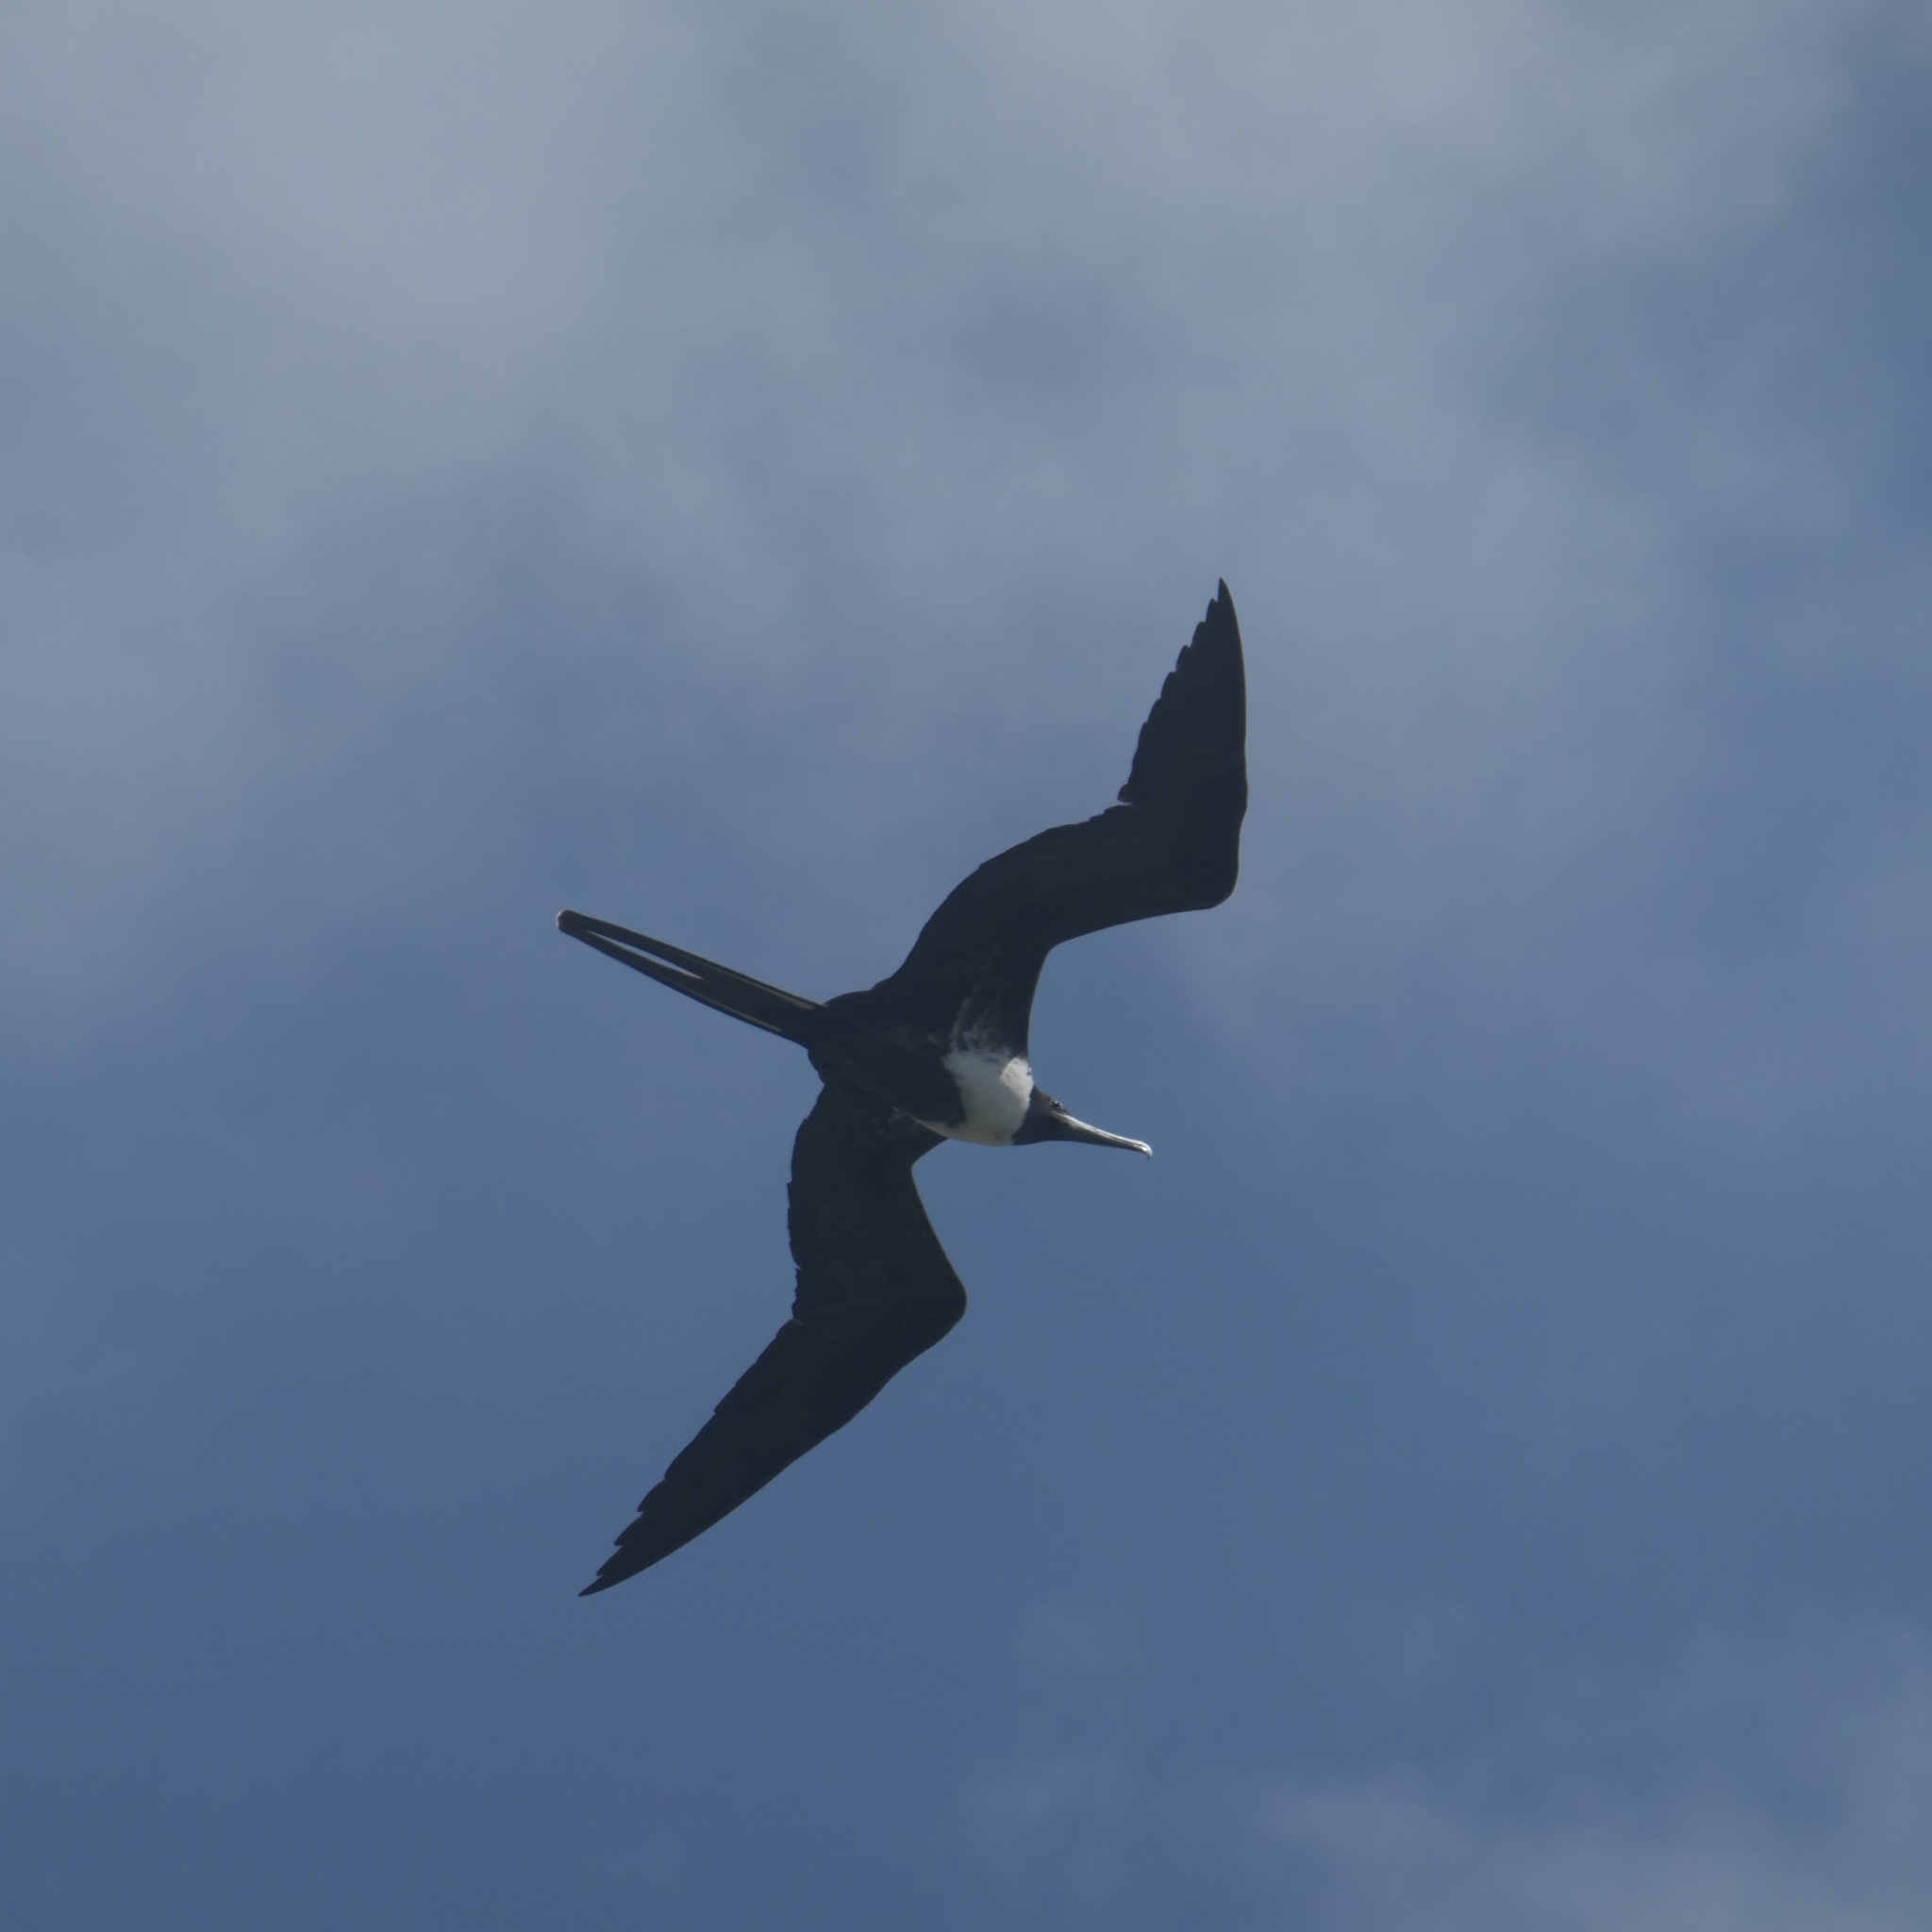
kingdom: Animalia
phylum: Chordata
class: Aves
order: Suliformes
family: Fregatidae
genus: Fregata
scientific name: Fregata magnificens
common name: Magnificent frigatebird
